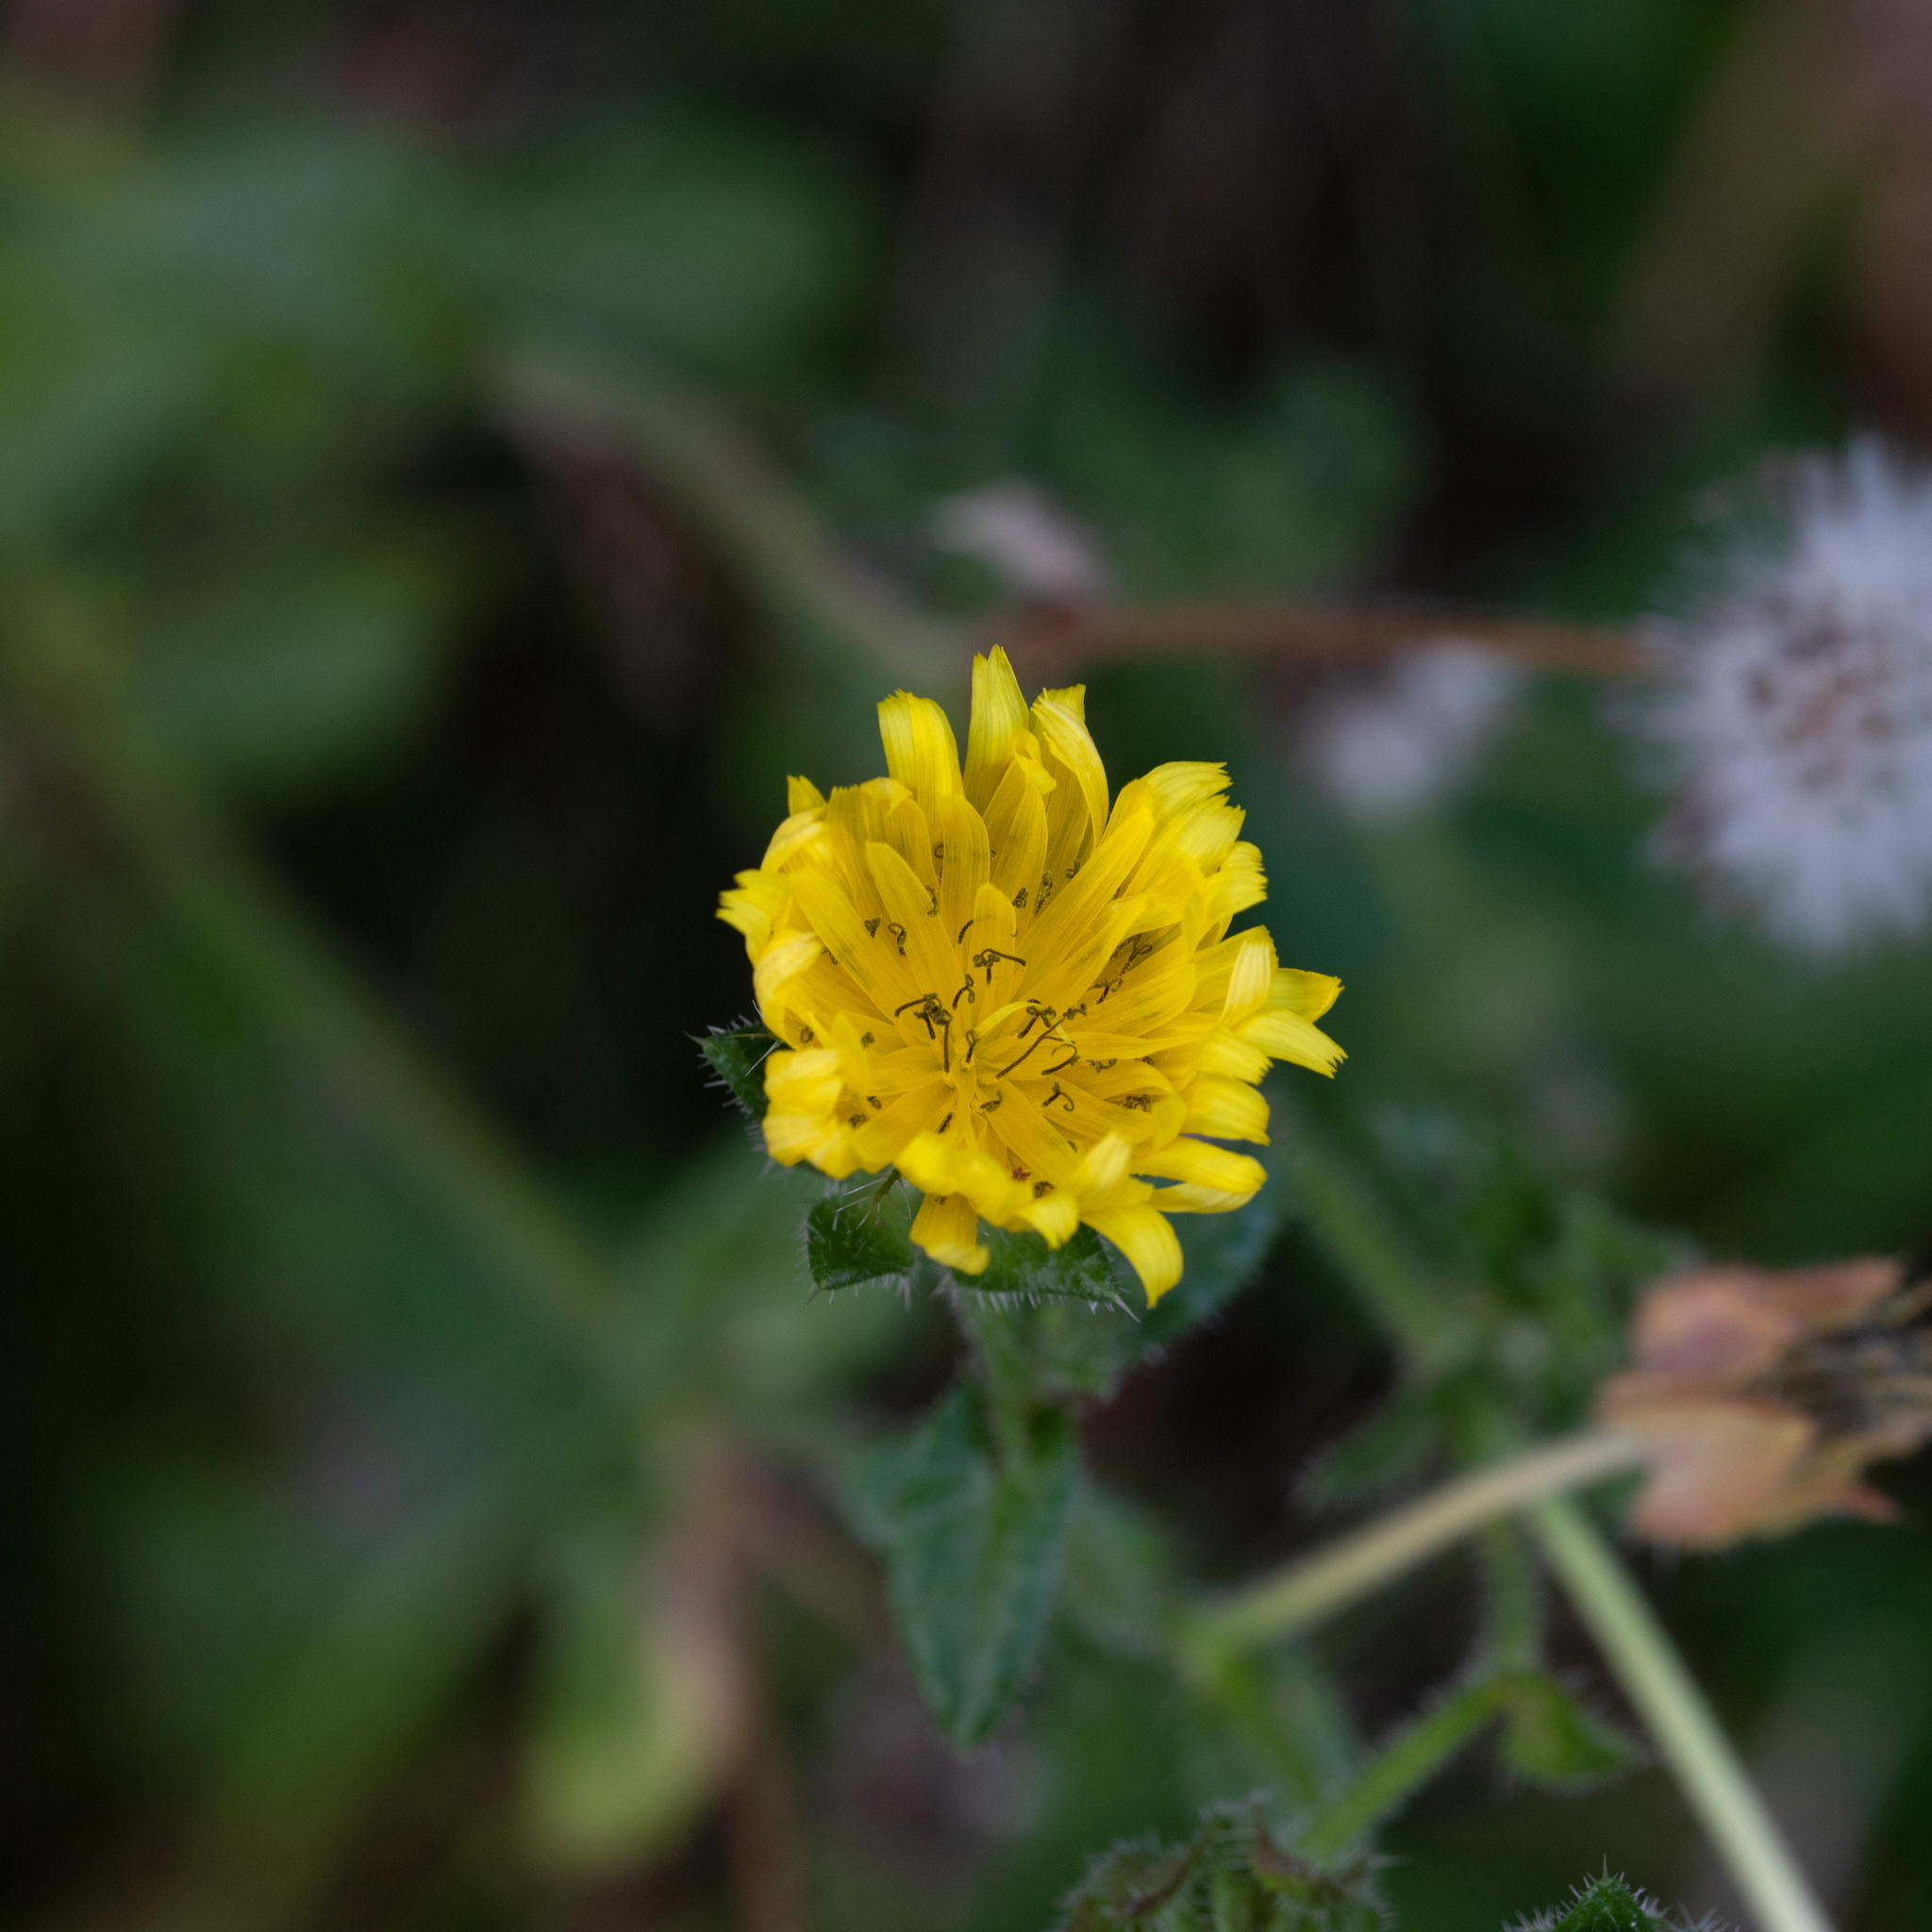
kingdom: Plantae
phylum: Tracheophyta
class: Magnoliopsida
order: Asterales
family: Asteraceae
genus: Helminthotheca
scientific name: Helminthotheca echioides
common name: Ox-tongue
